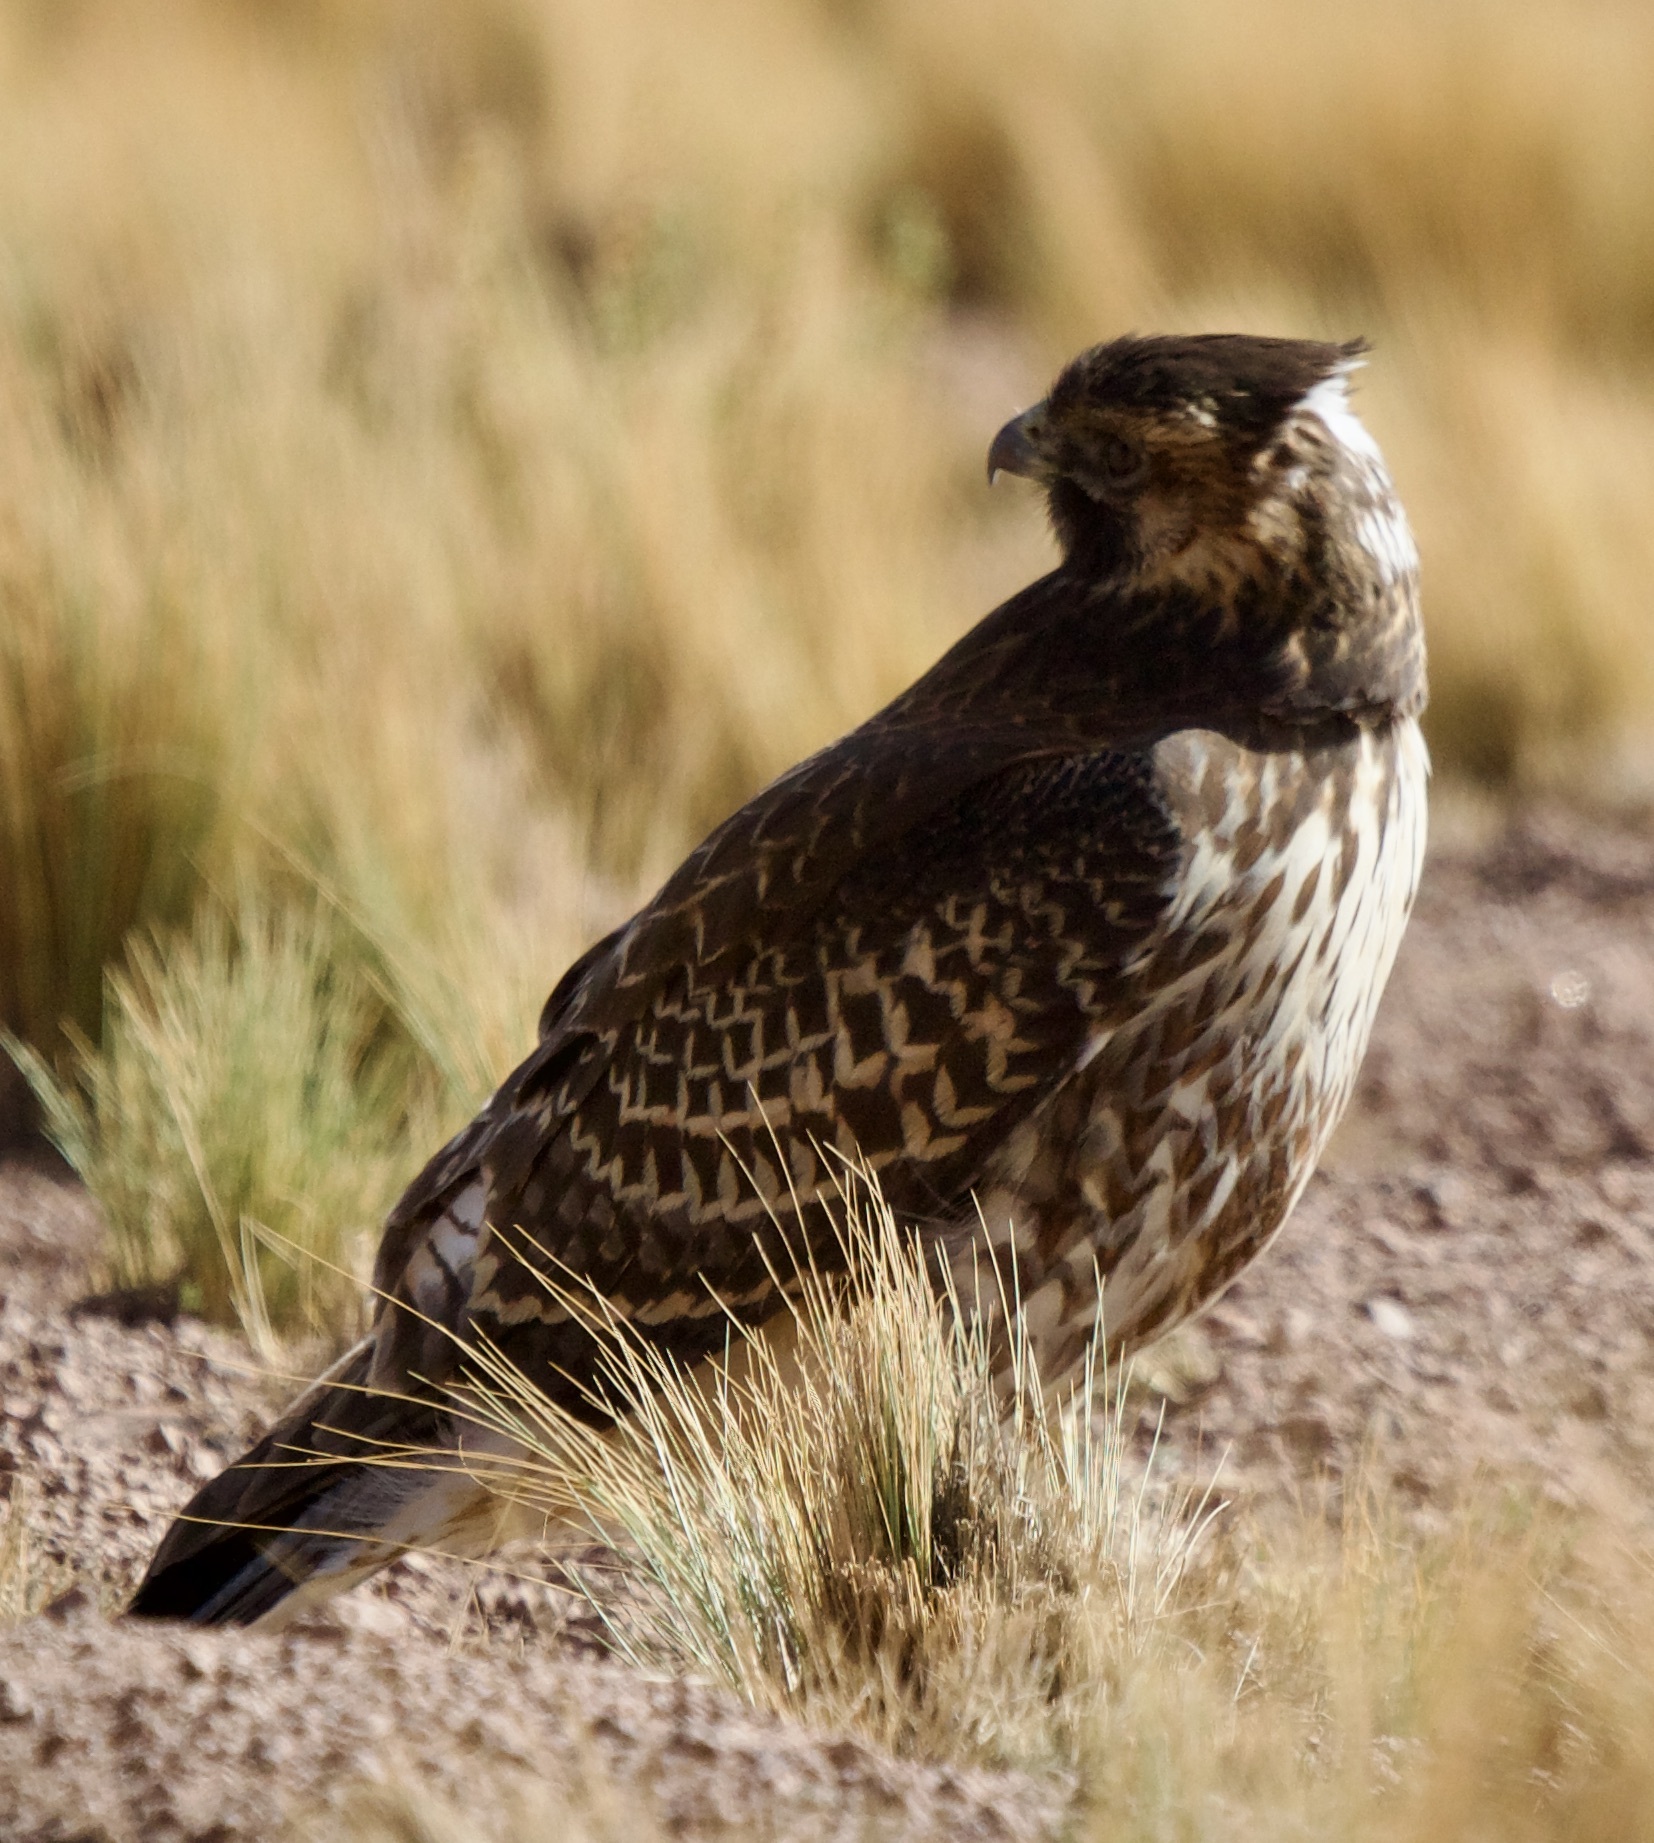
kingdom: Animalia
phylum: Chordata
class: Aves
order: Accipitriformes
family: Accipitridae
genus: Buteo
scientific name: Buteo polyosoma
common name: Variable hawk
